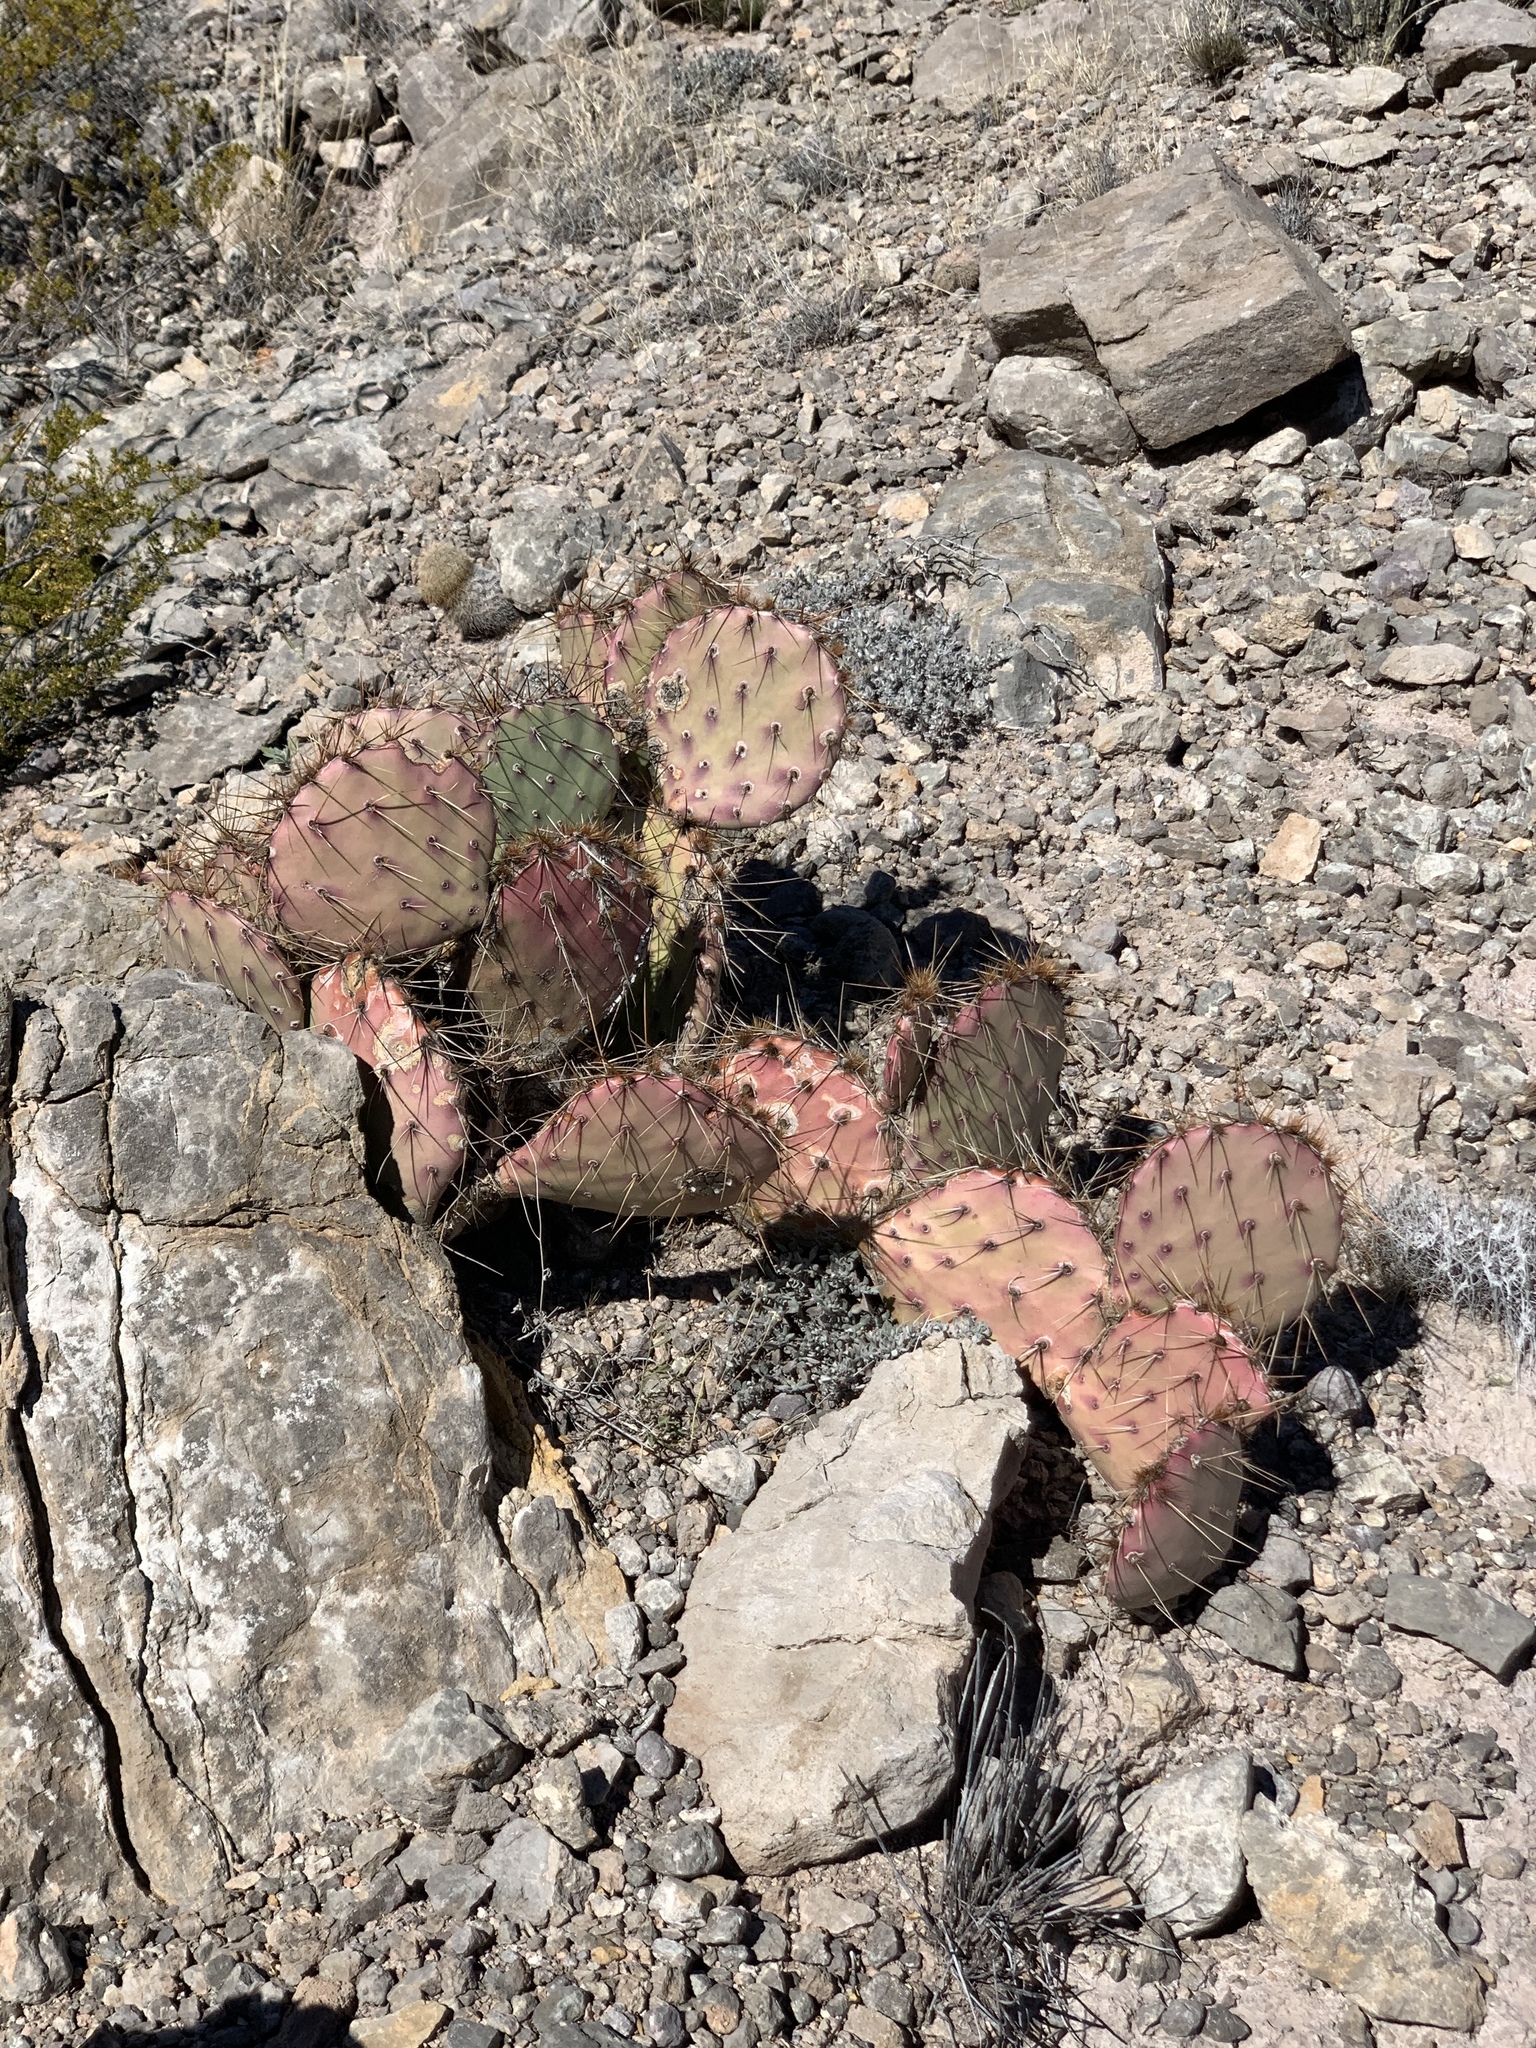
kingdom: Plantae
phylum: Tracheophyta
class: Magnoliopsida
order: Caryophyllales
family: Cactaceae
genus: Opuntia
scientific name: Opuntia macrocentra
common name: Purple prickly-pear
